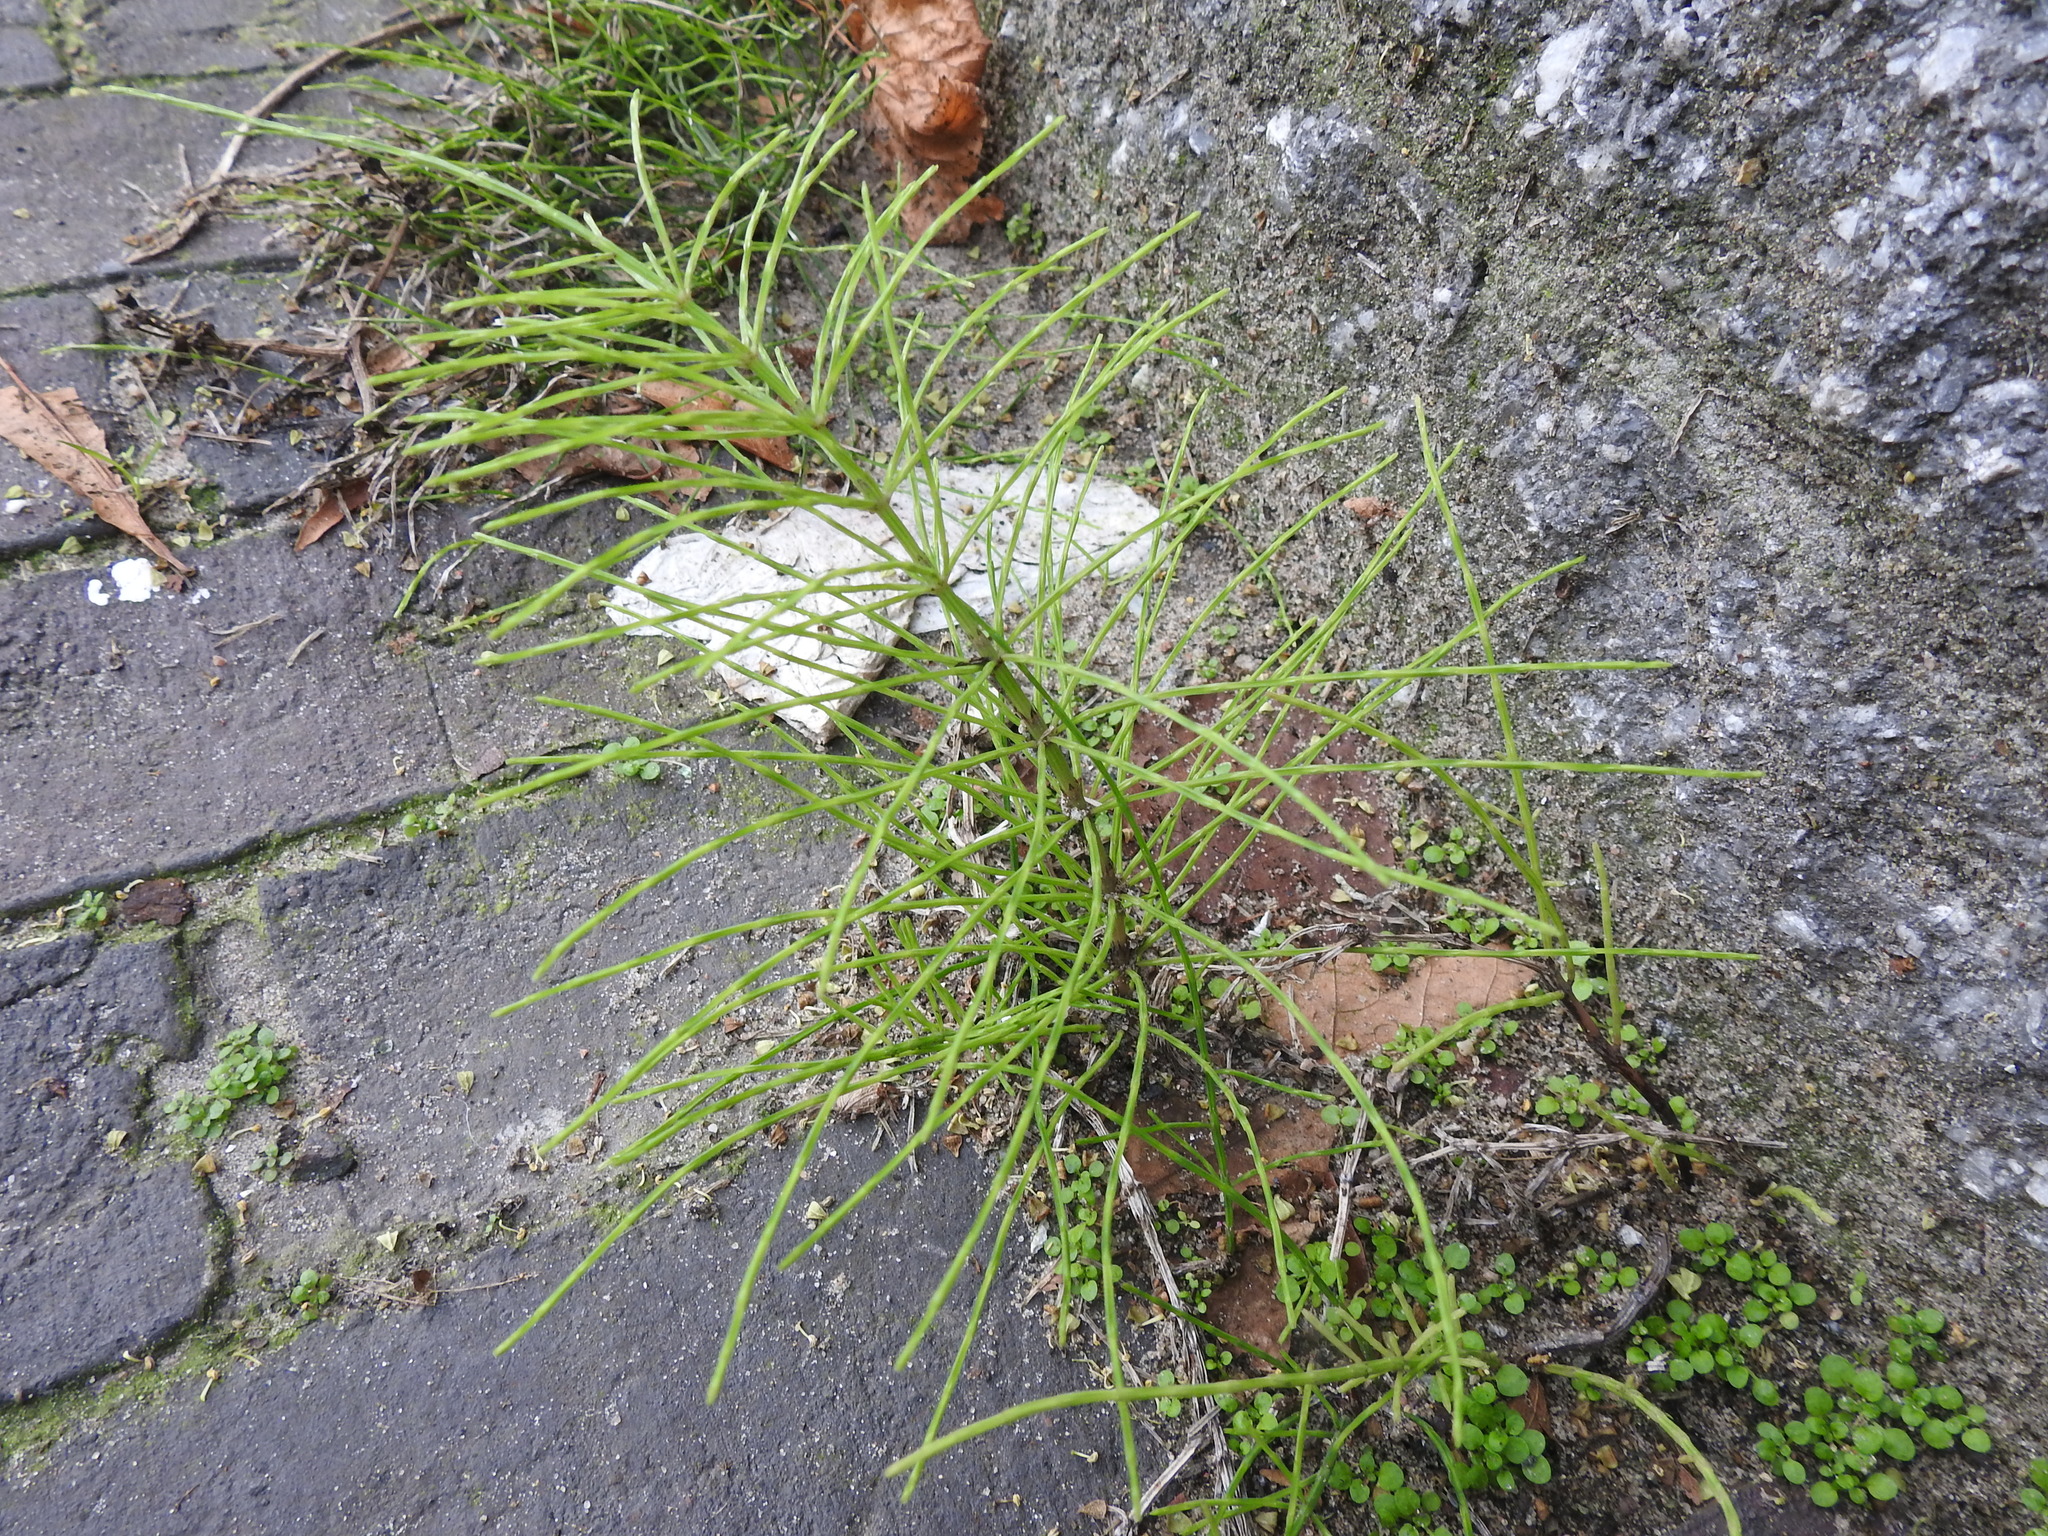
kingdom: Plantae
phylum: Tracheophyta
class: Polypodiopsida
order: Equisetales
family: Equisetaceae
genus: Equisetum
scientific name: Equisetum arvense
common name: Field horsetail
